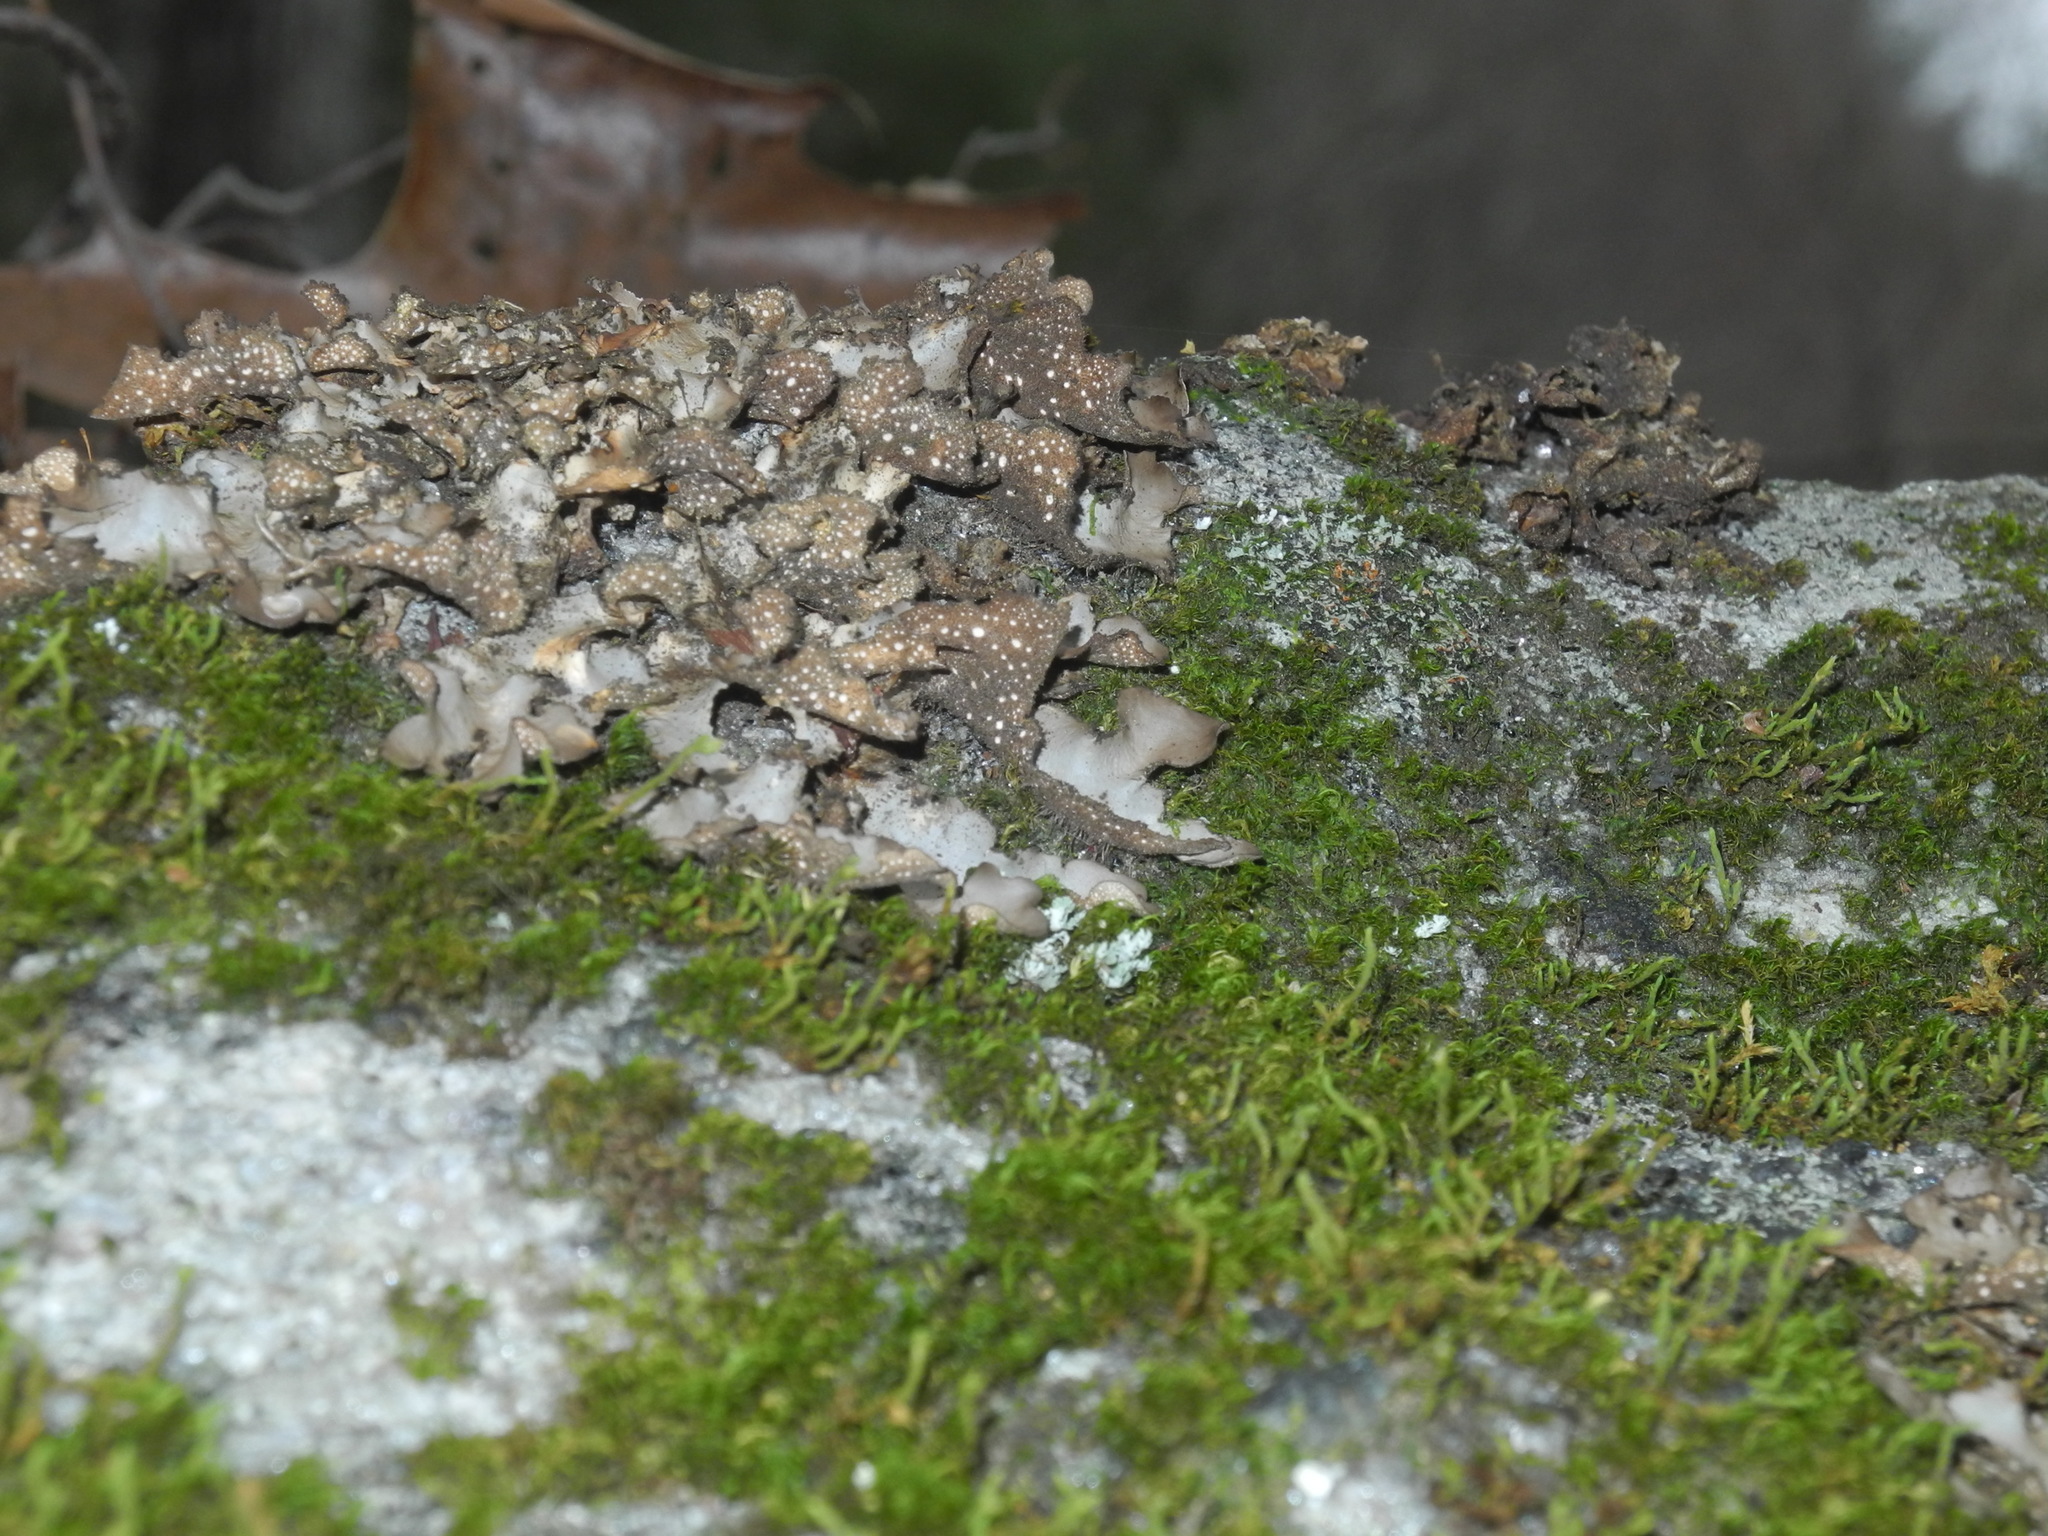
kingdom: Fungi
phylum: Ascomycota
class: Lecanoromycetes
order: Peltigerales
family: Lobariaceae
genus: Sticta
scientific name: Sticta beauvoisii
